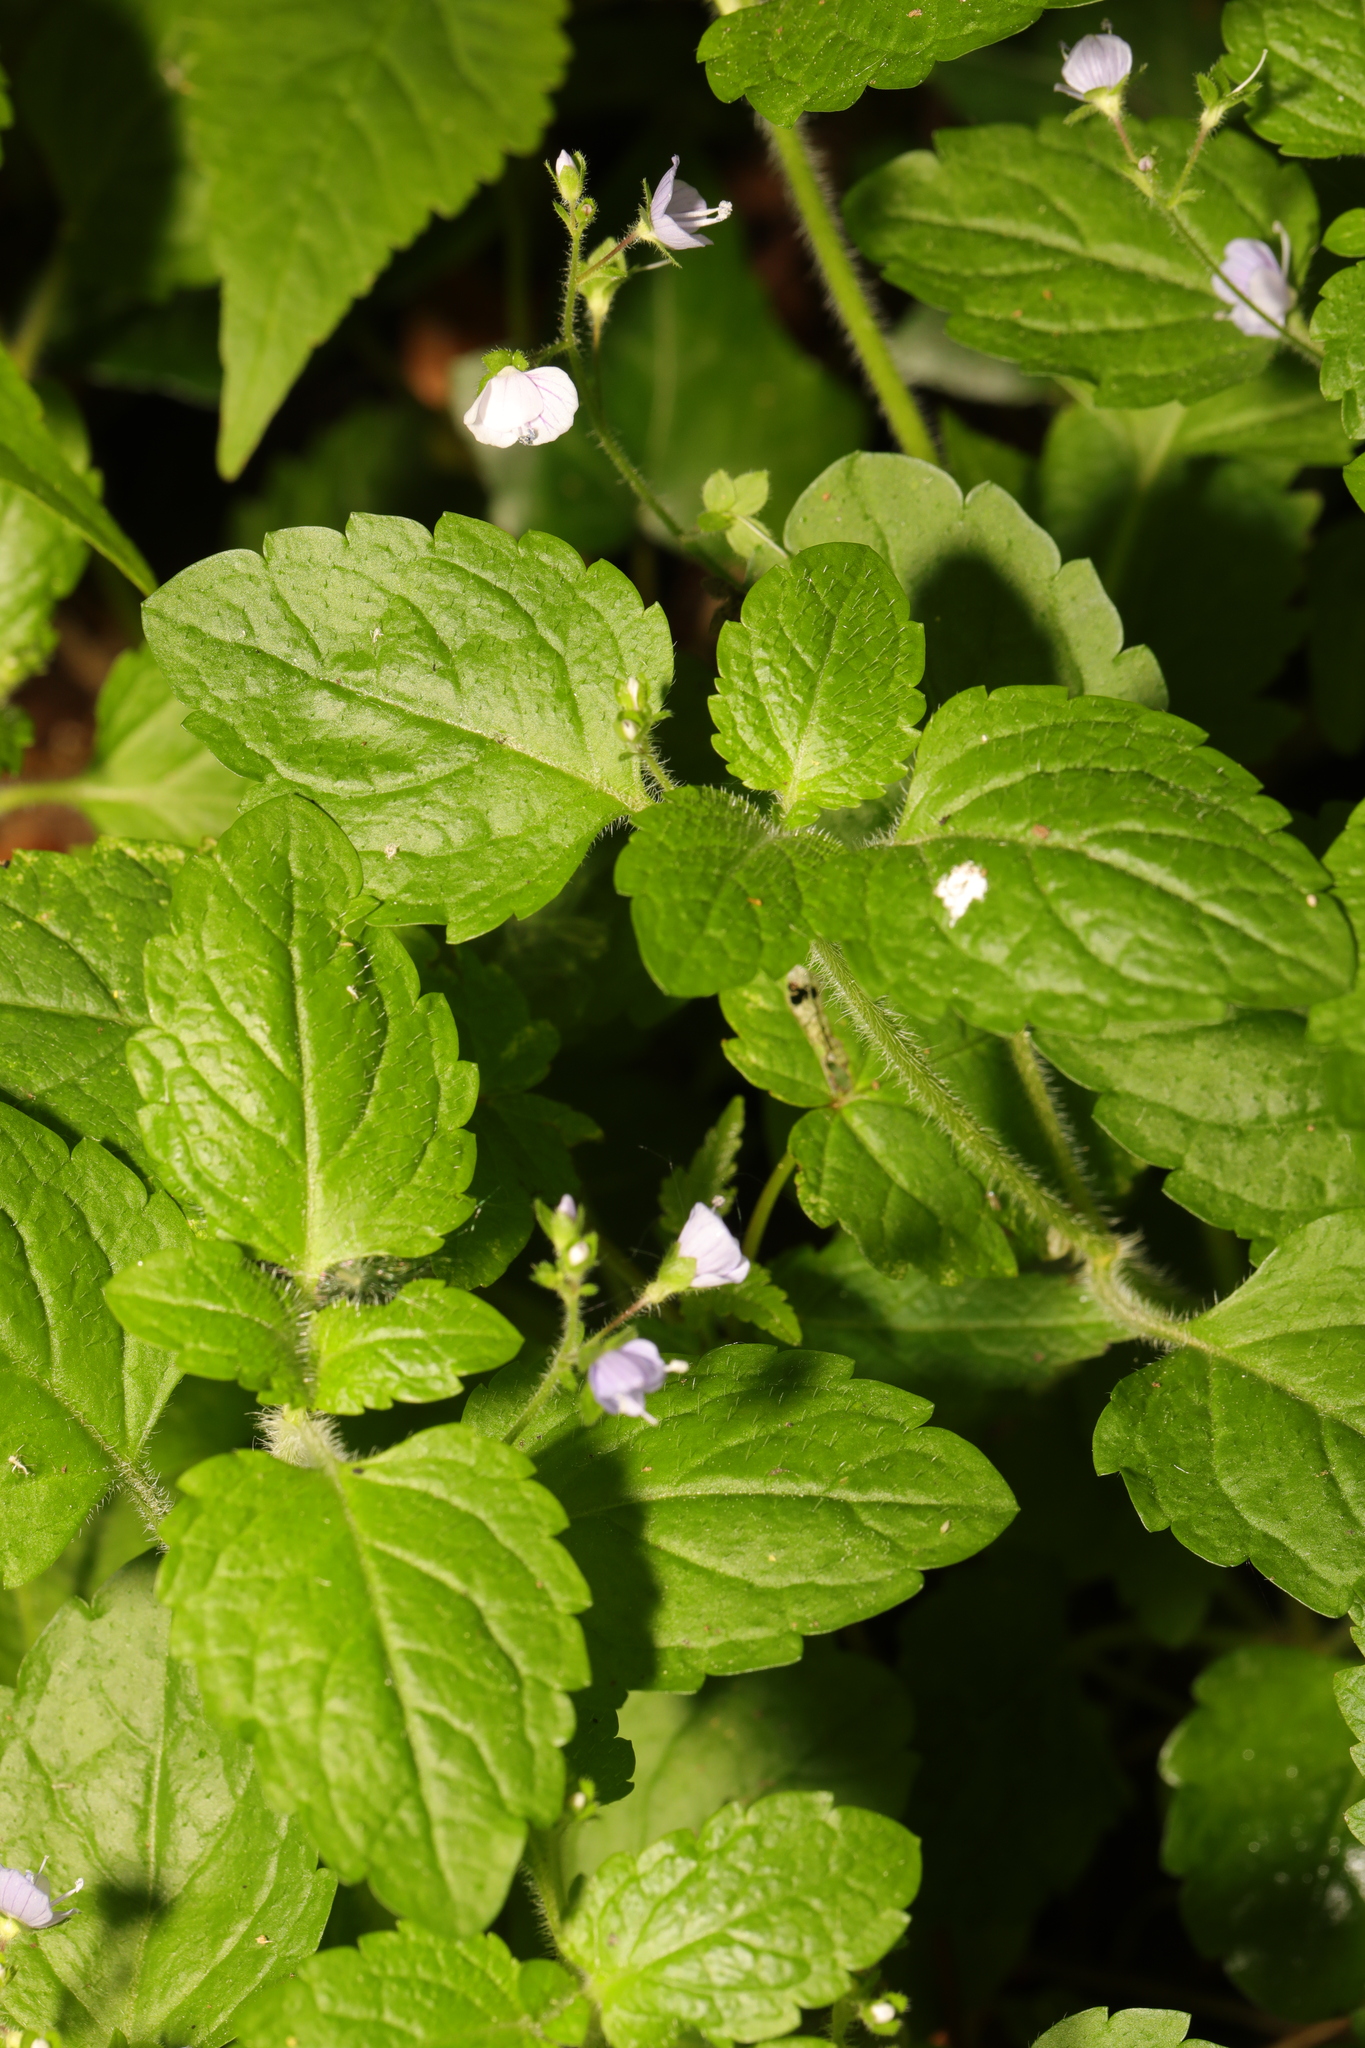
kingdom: Plantae
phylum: Tracheophyta
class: Magnoliopsida
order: Lamiales
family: Plantaginaceae
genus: Veronica
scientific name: Veronica montana
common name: Wood speedwell
